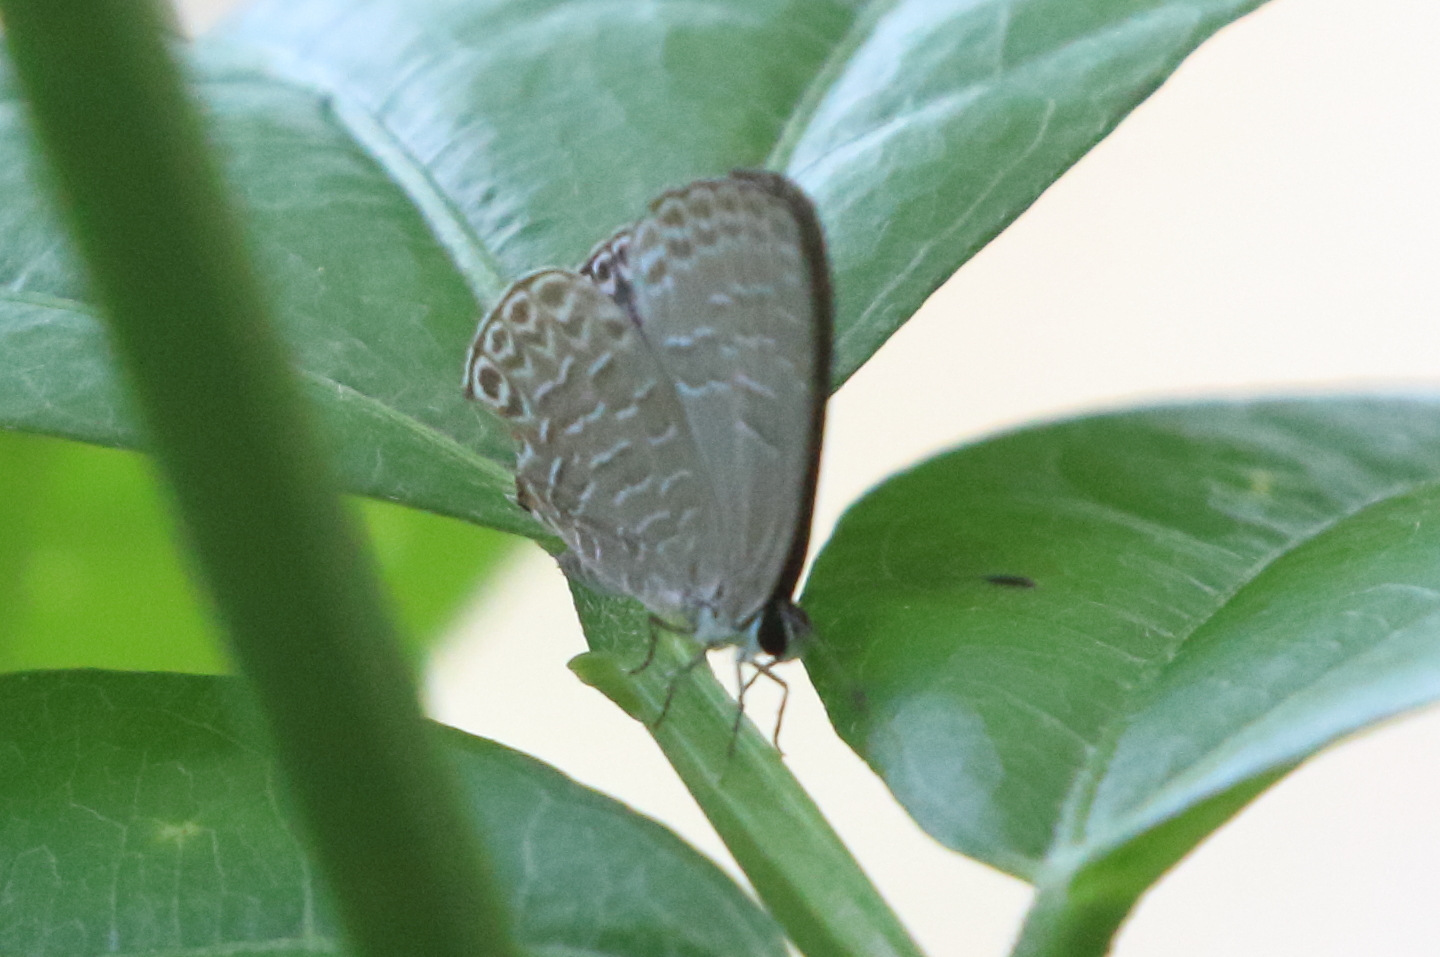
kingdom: Animalia
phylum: Arthropoda
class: Insecta
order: Lepidoptera
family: Lycaenidae
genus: Lycaena
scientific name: Lycaena argentina
